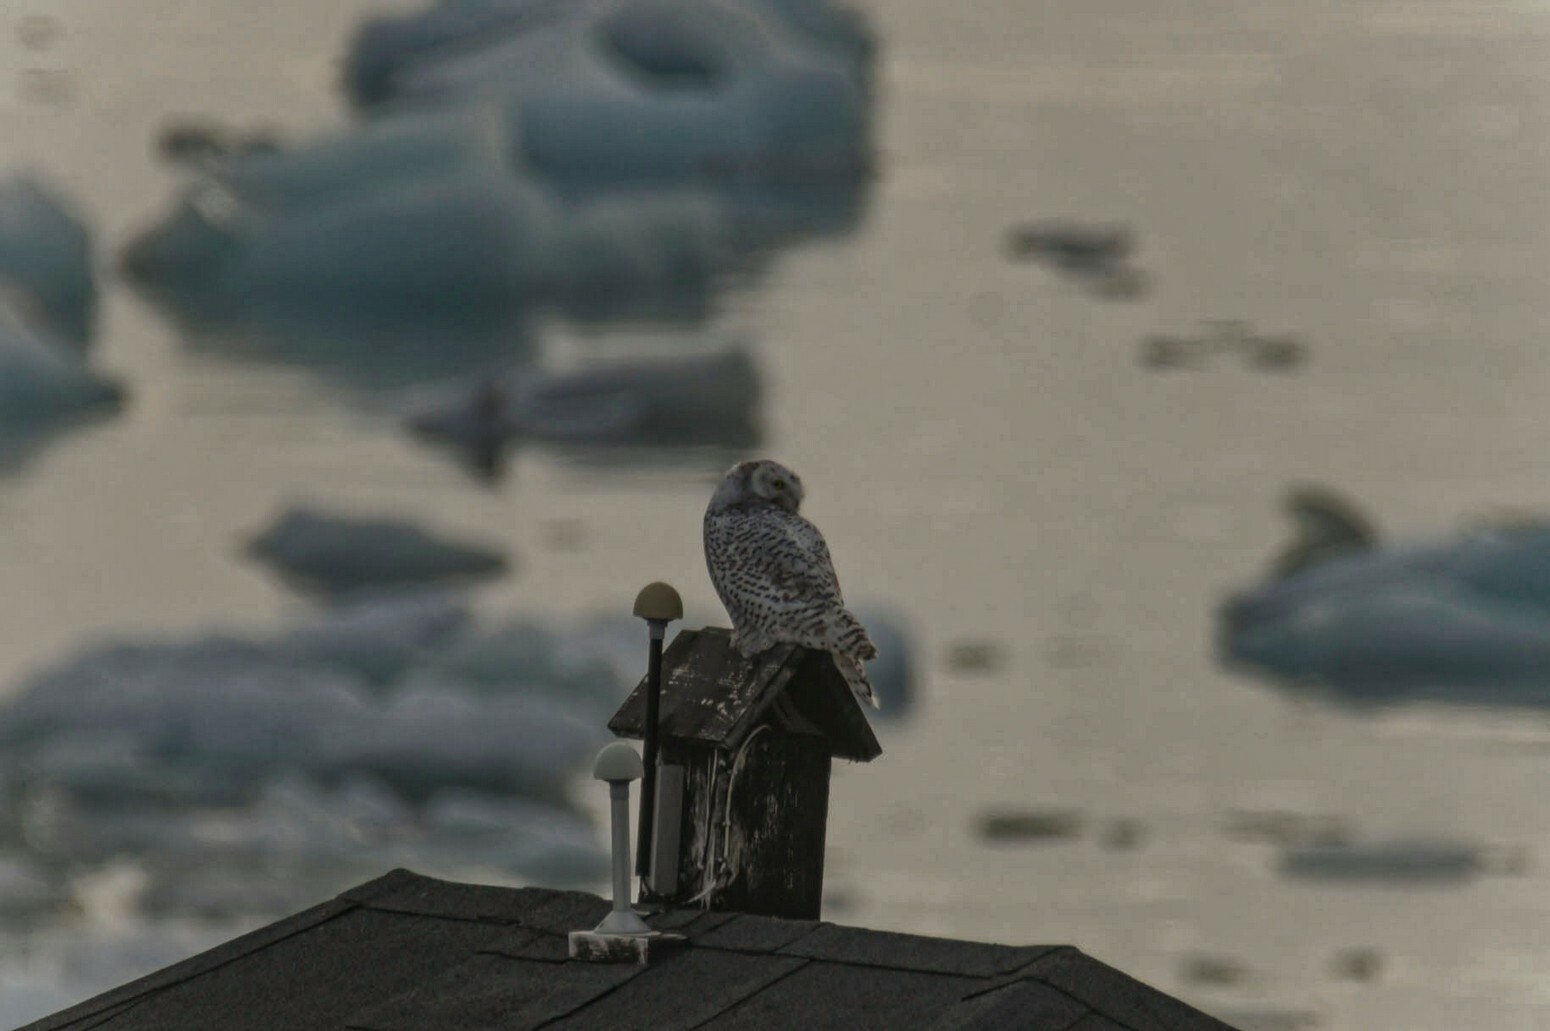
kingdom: Animalia
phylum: Chordata
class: Aves
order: Strigiformes
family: Strigidae
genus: Bubo
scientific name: Bubo scandiacus
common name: Snowy owl
